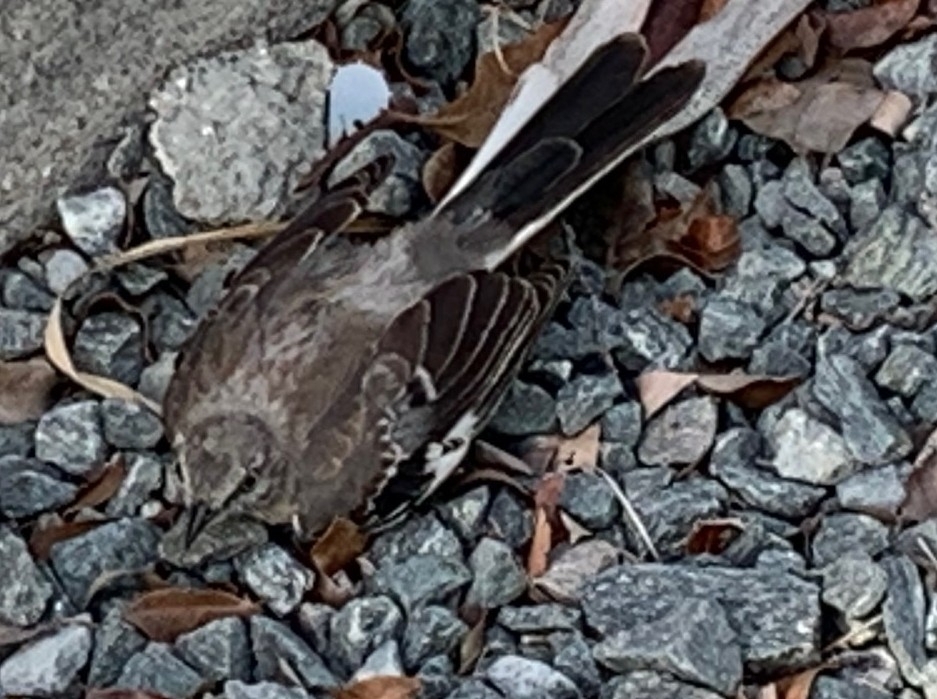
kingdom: Animalia
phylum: Chordata
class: Aves
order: Passeriformes
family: Mimidae
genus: Mimus
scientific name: Mimus polyglottos
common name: Northern mockingbird
